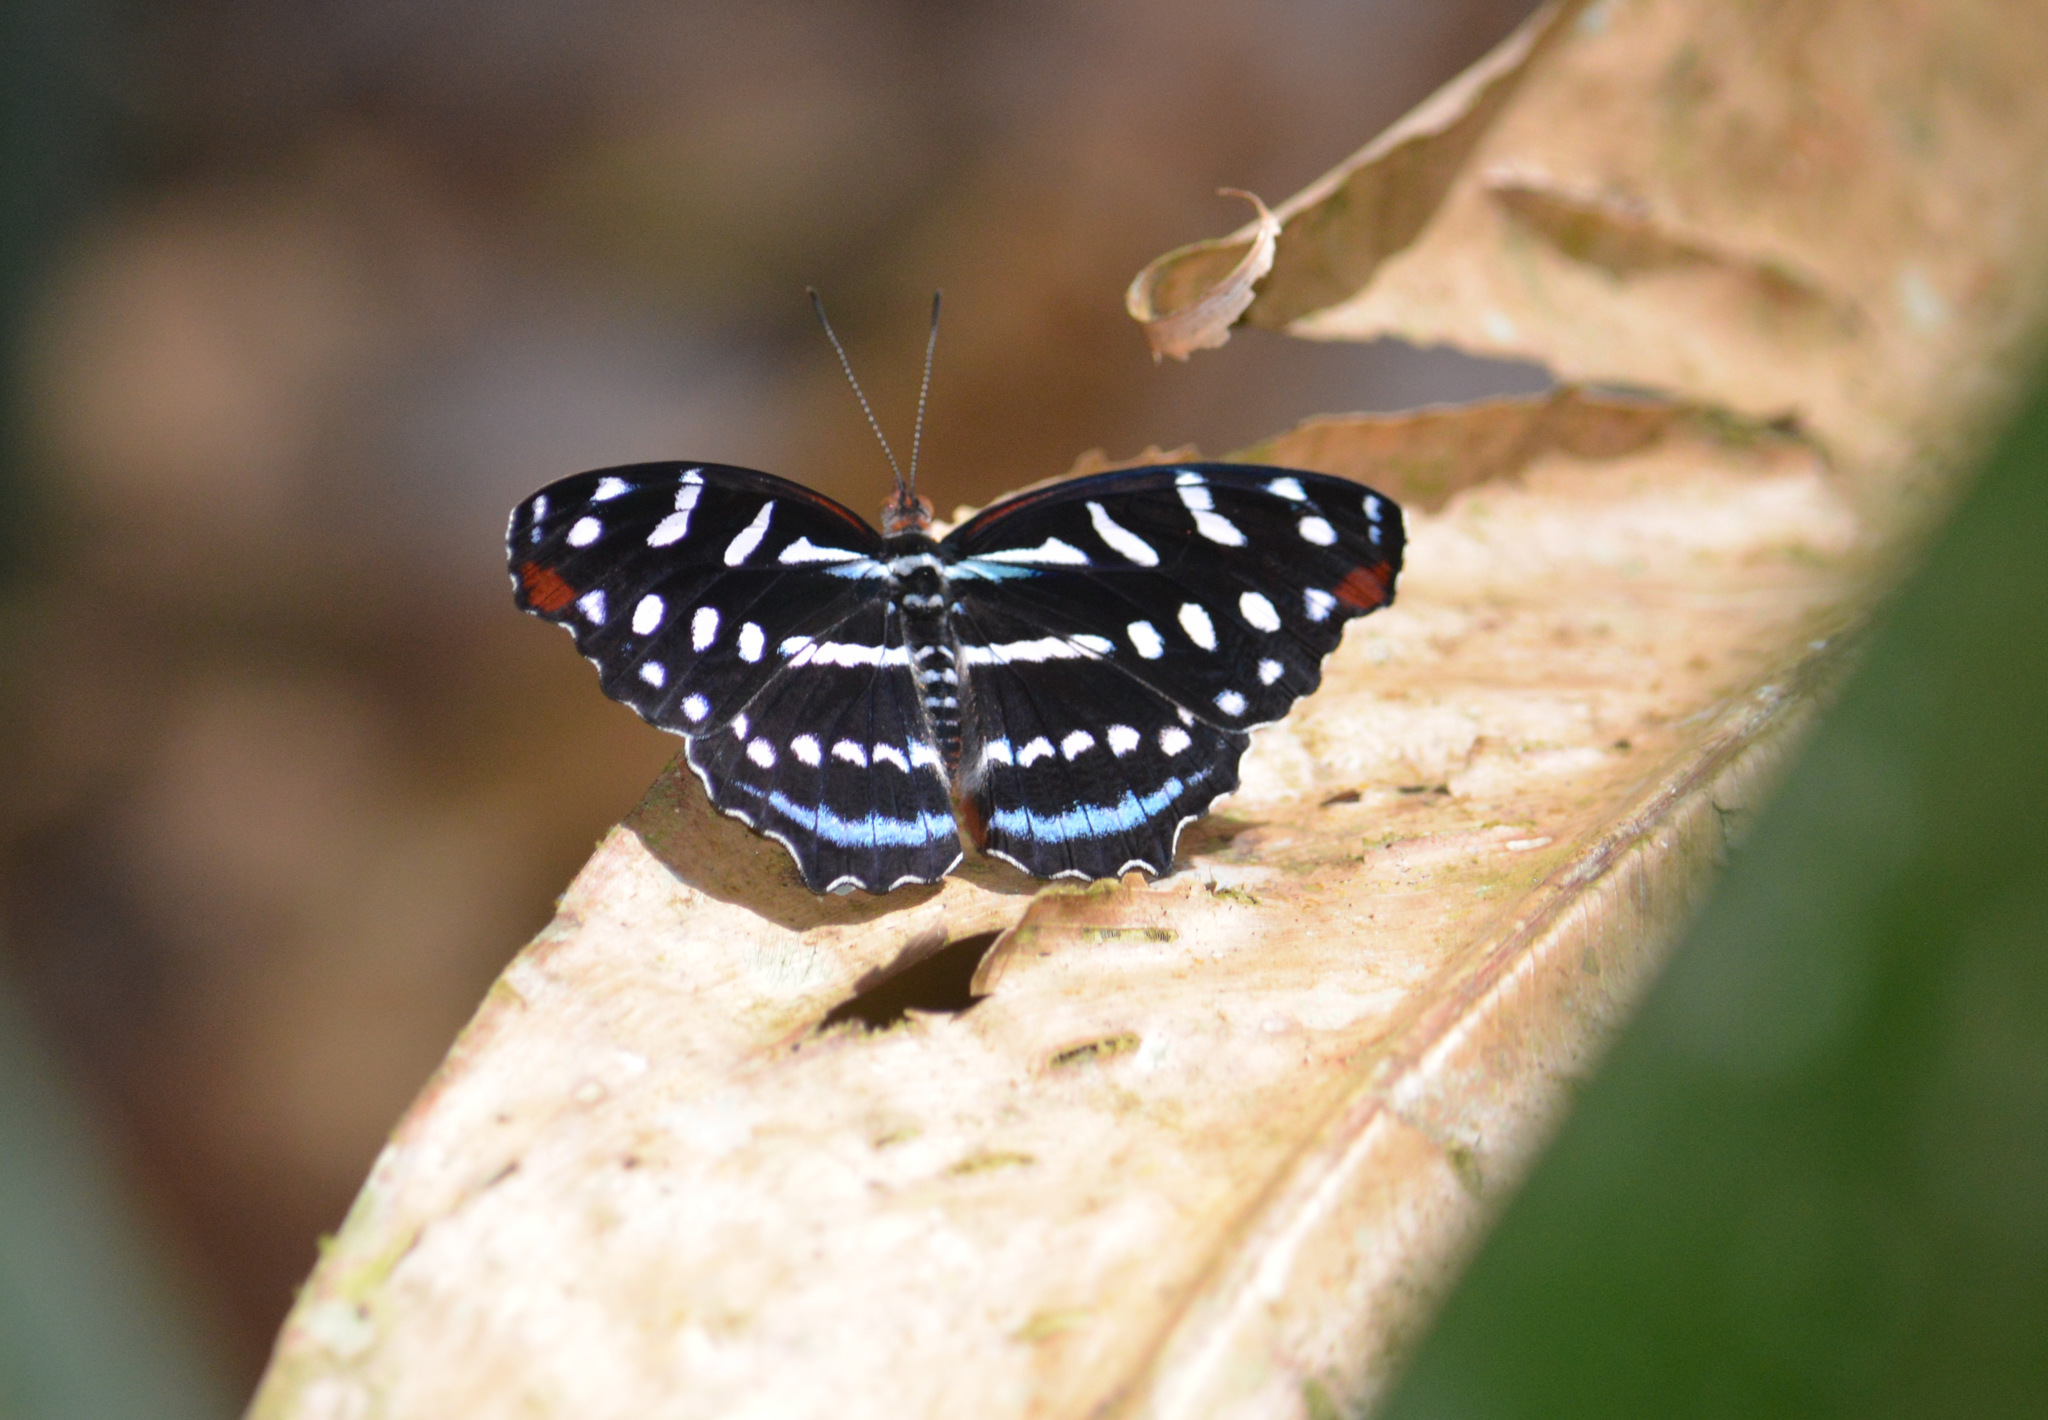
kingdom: Animalia
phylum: Arthropoda
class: Insecta
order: Lepidoptera
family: Nymphalidae
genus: Myscelia
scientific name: Myscelia orsis
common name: Orsis bluewing
